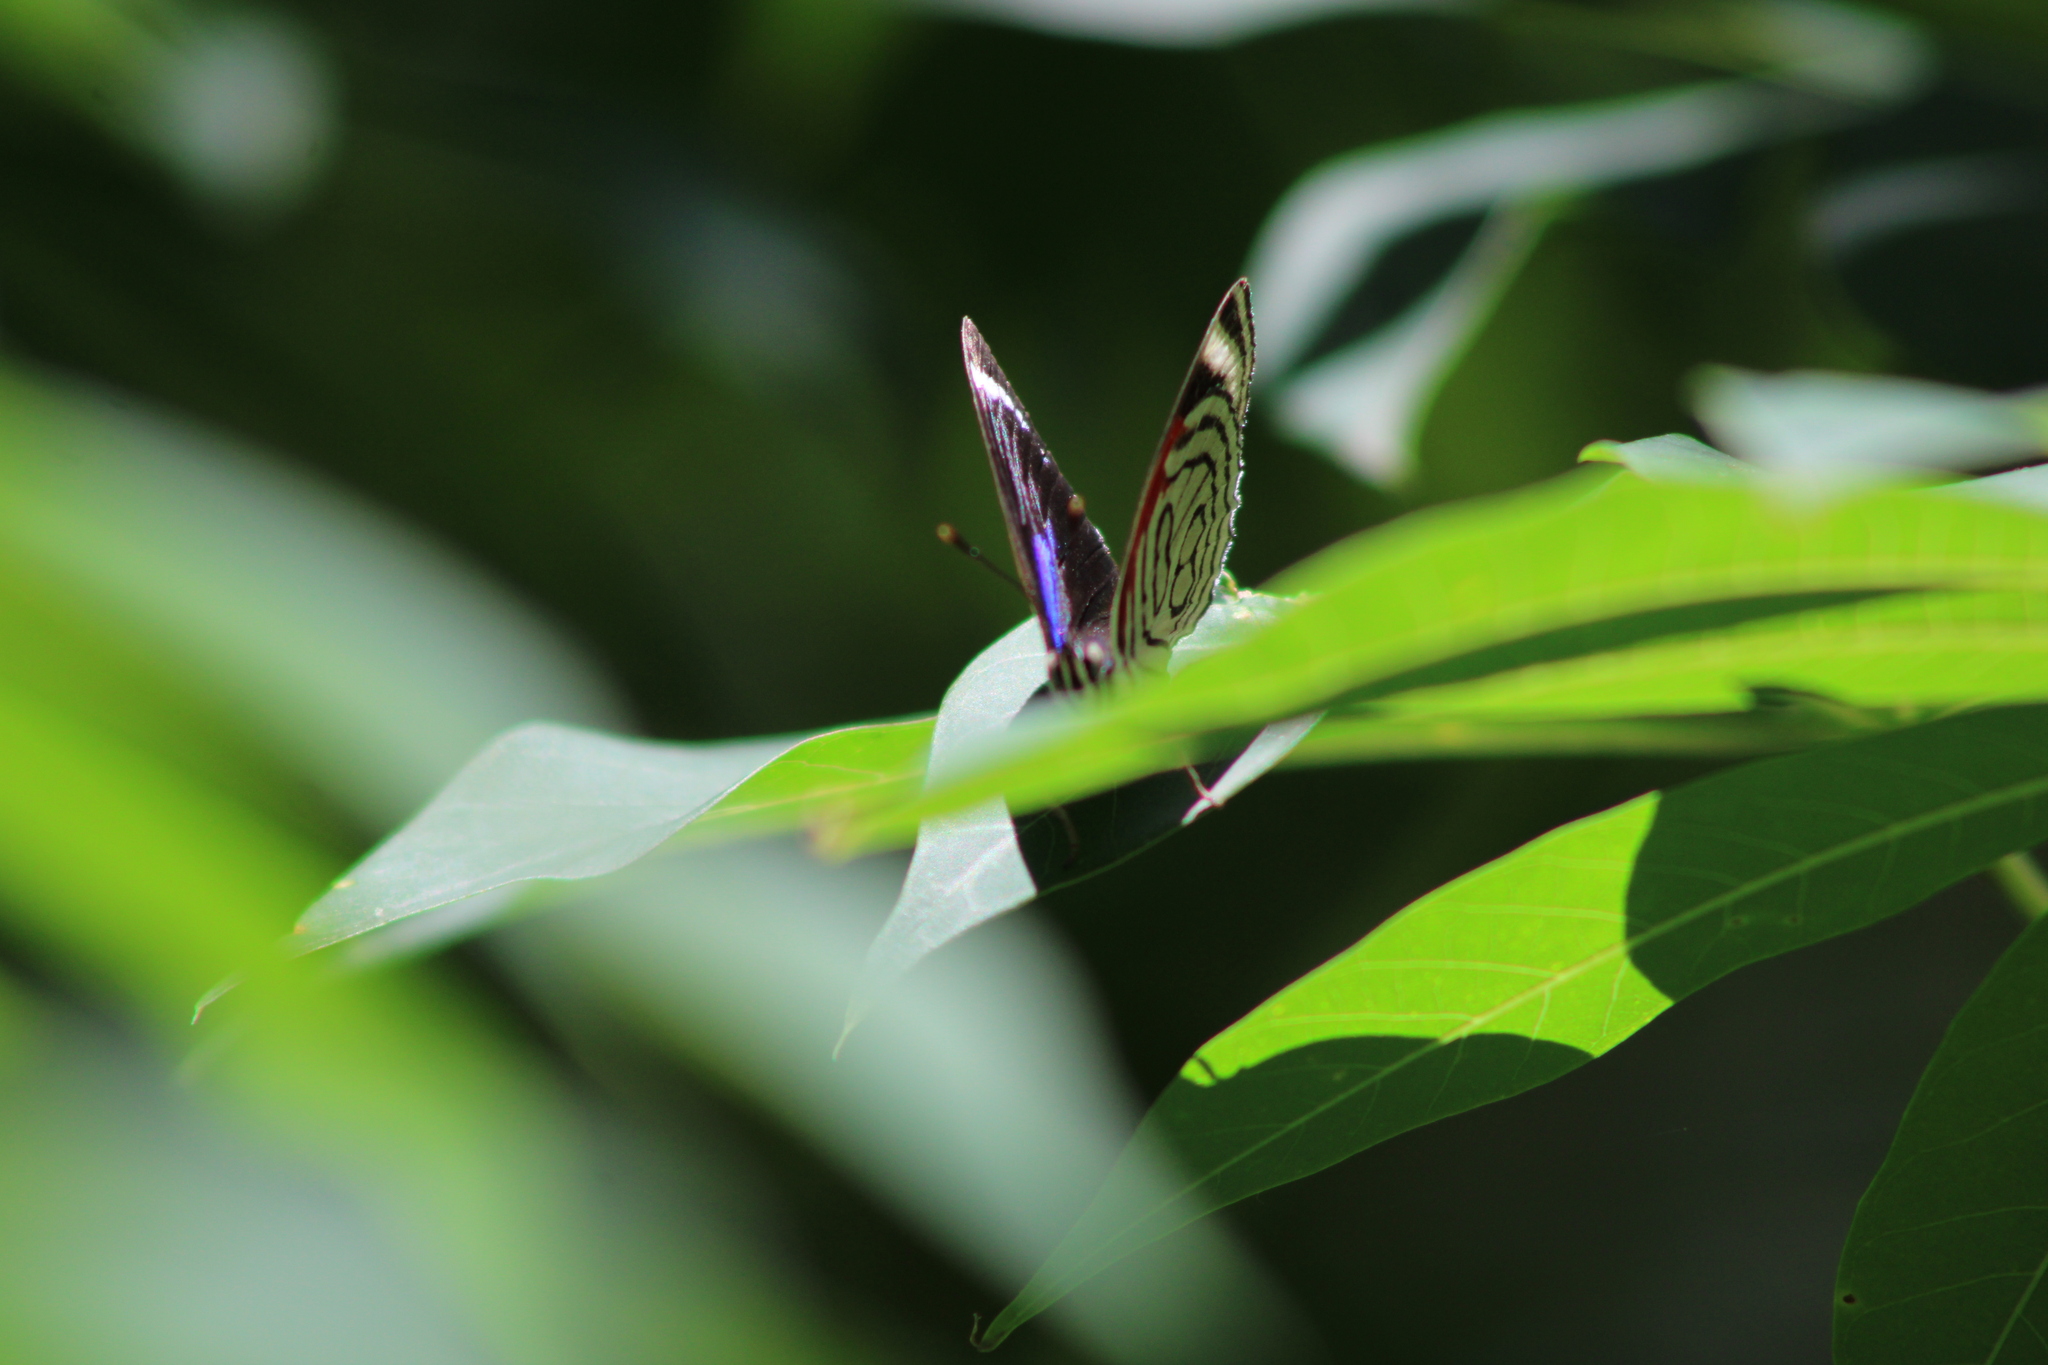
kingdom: Animalia
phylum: Arthropoda
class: Insecta
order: Lepidoptera
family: Nymphalidae
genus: Diaethria
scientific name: Diaethria candrena
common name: Number eighty
